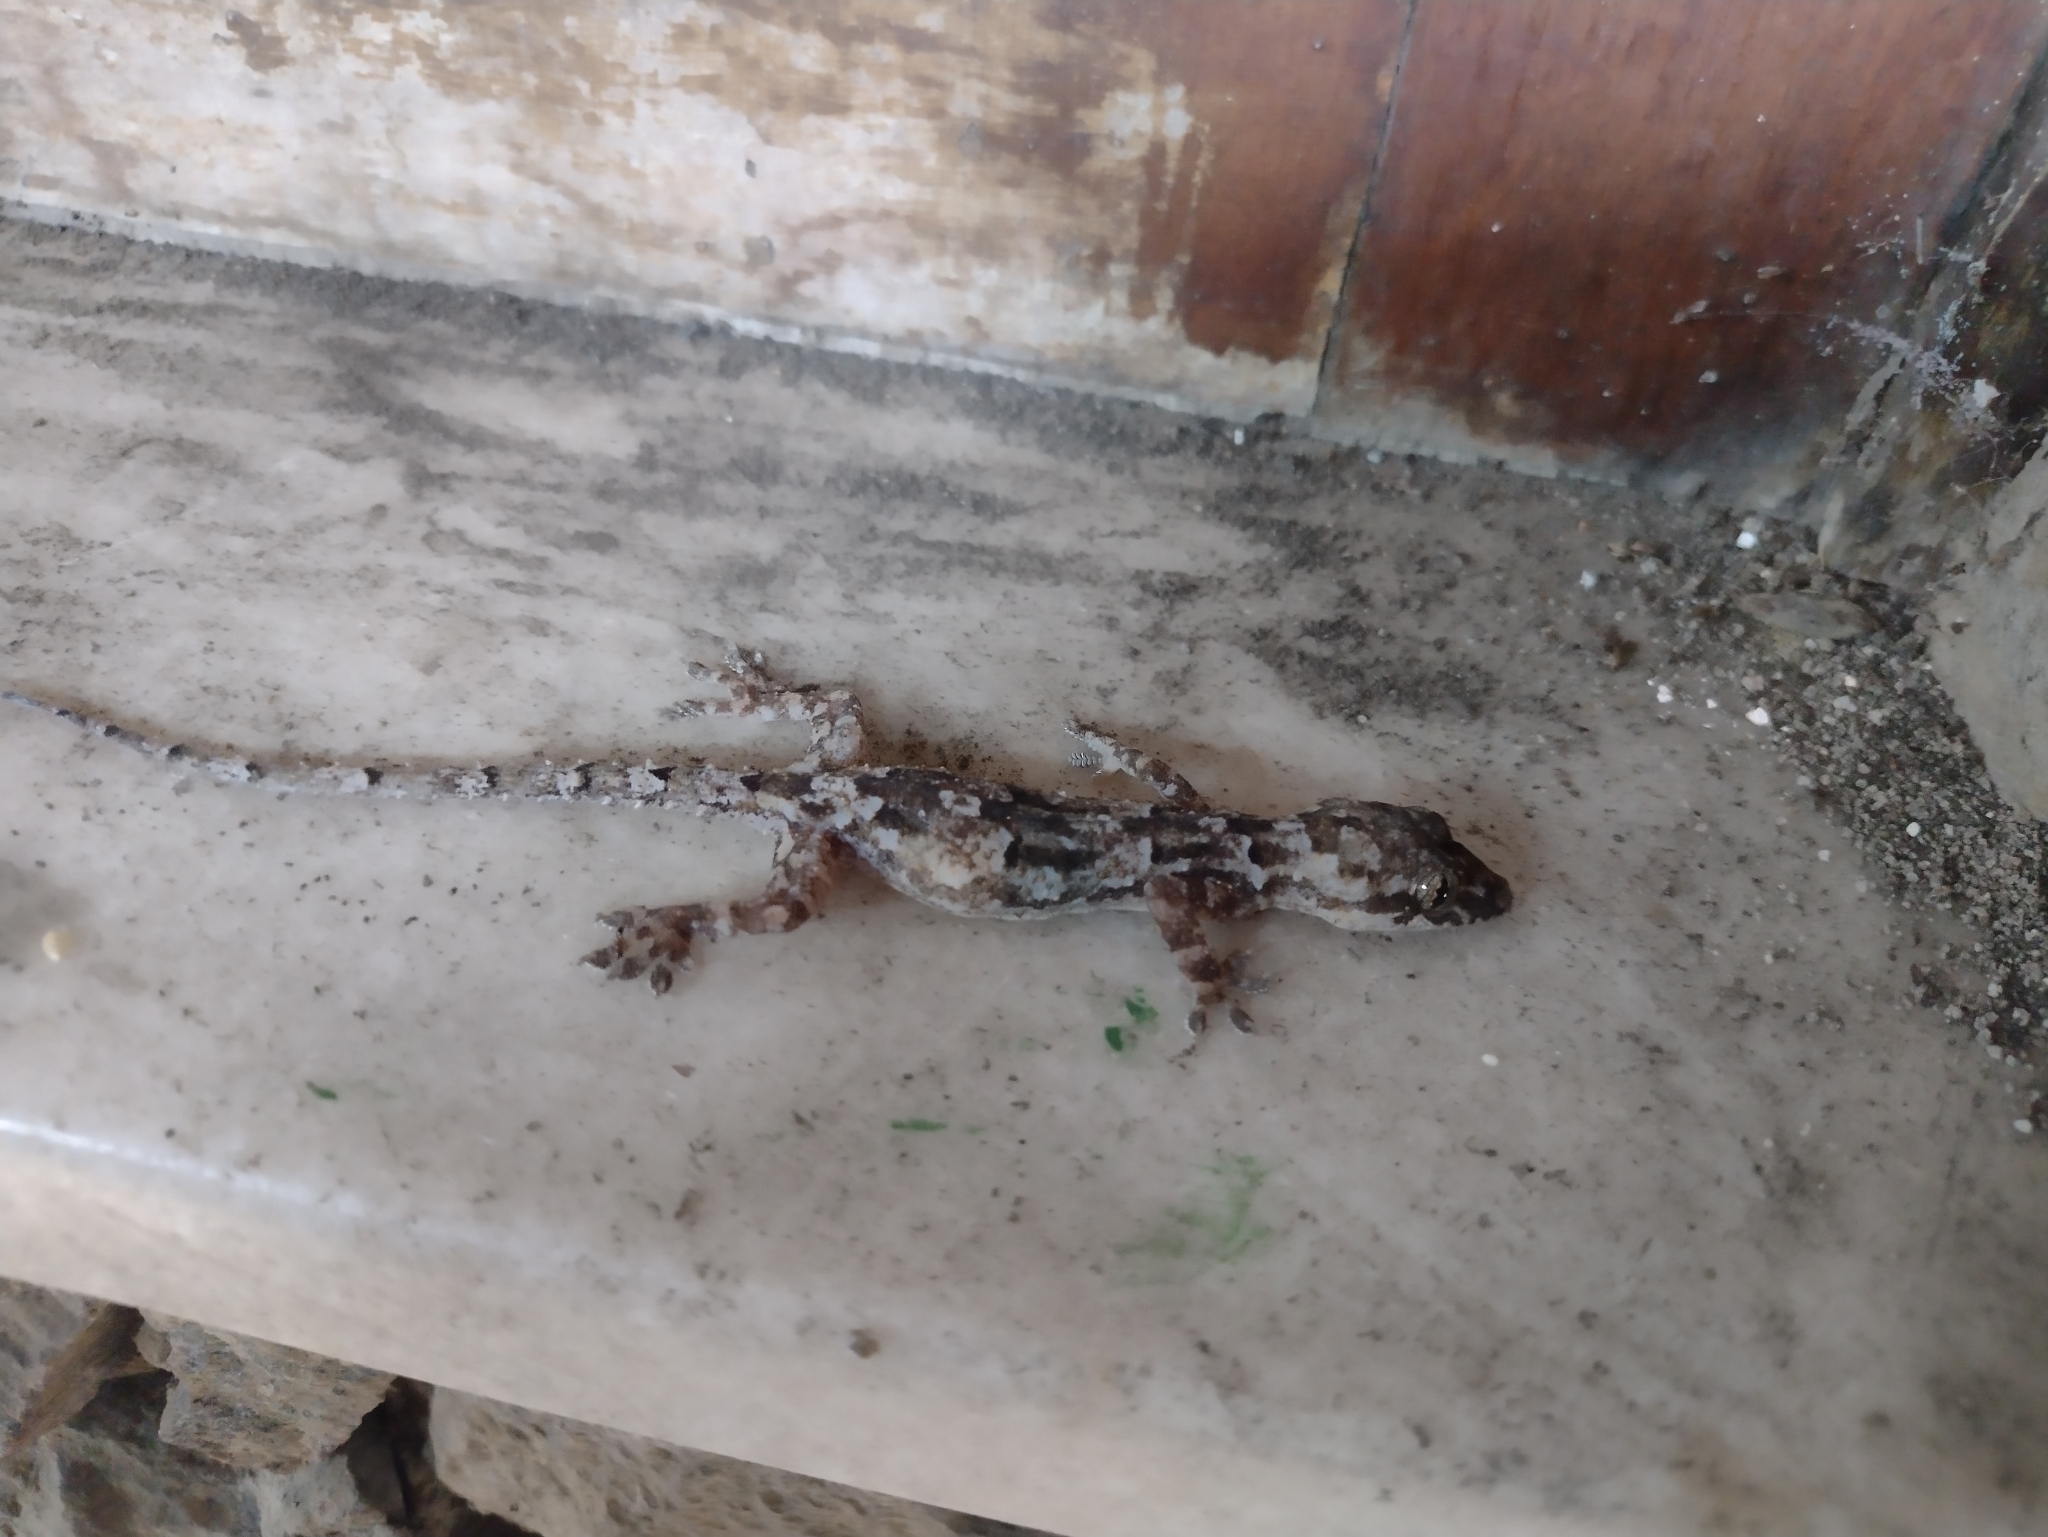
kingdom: Animalia
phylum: Chordata
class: Squamata
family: Gekkonidae
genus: Hemidactylus
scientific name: Hemidactylus mabouia
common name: House gecko
